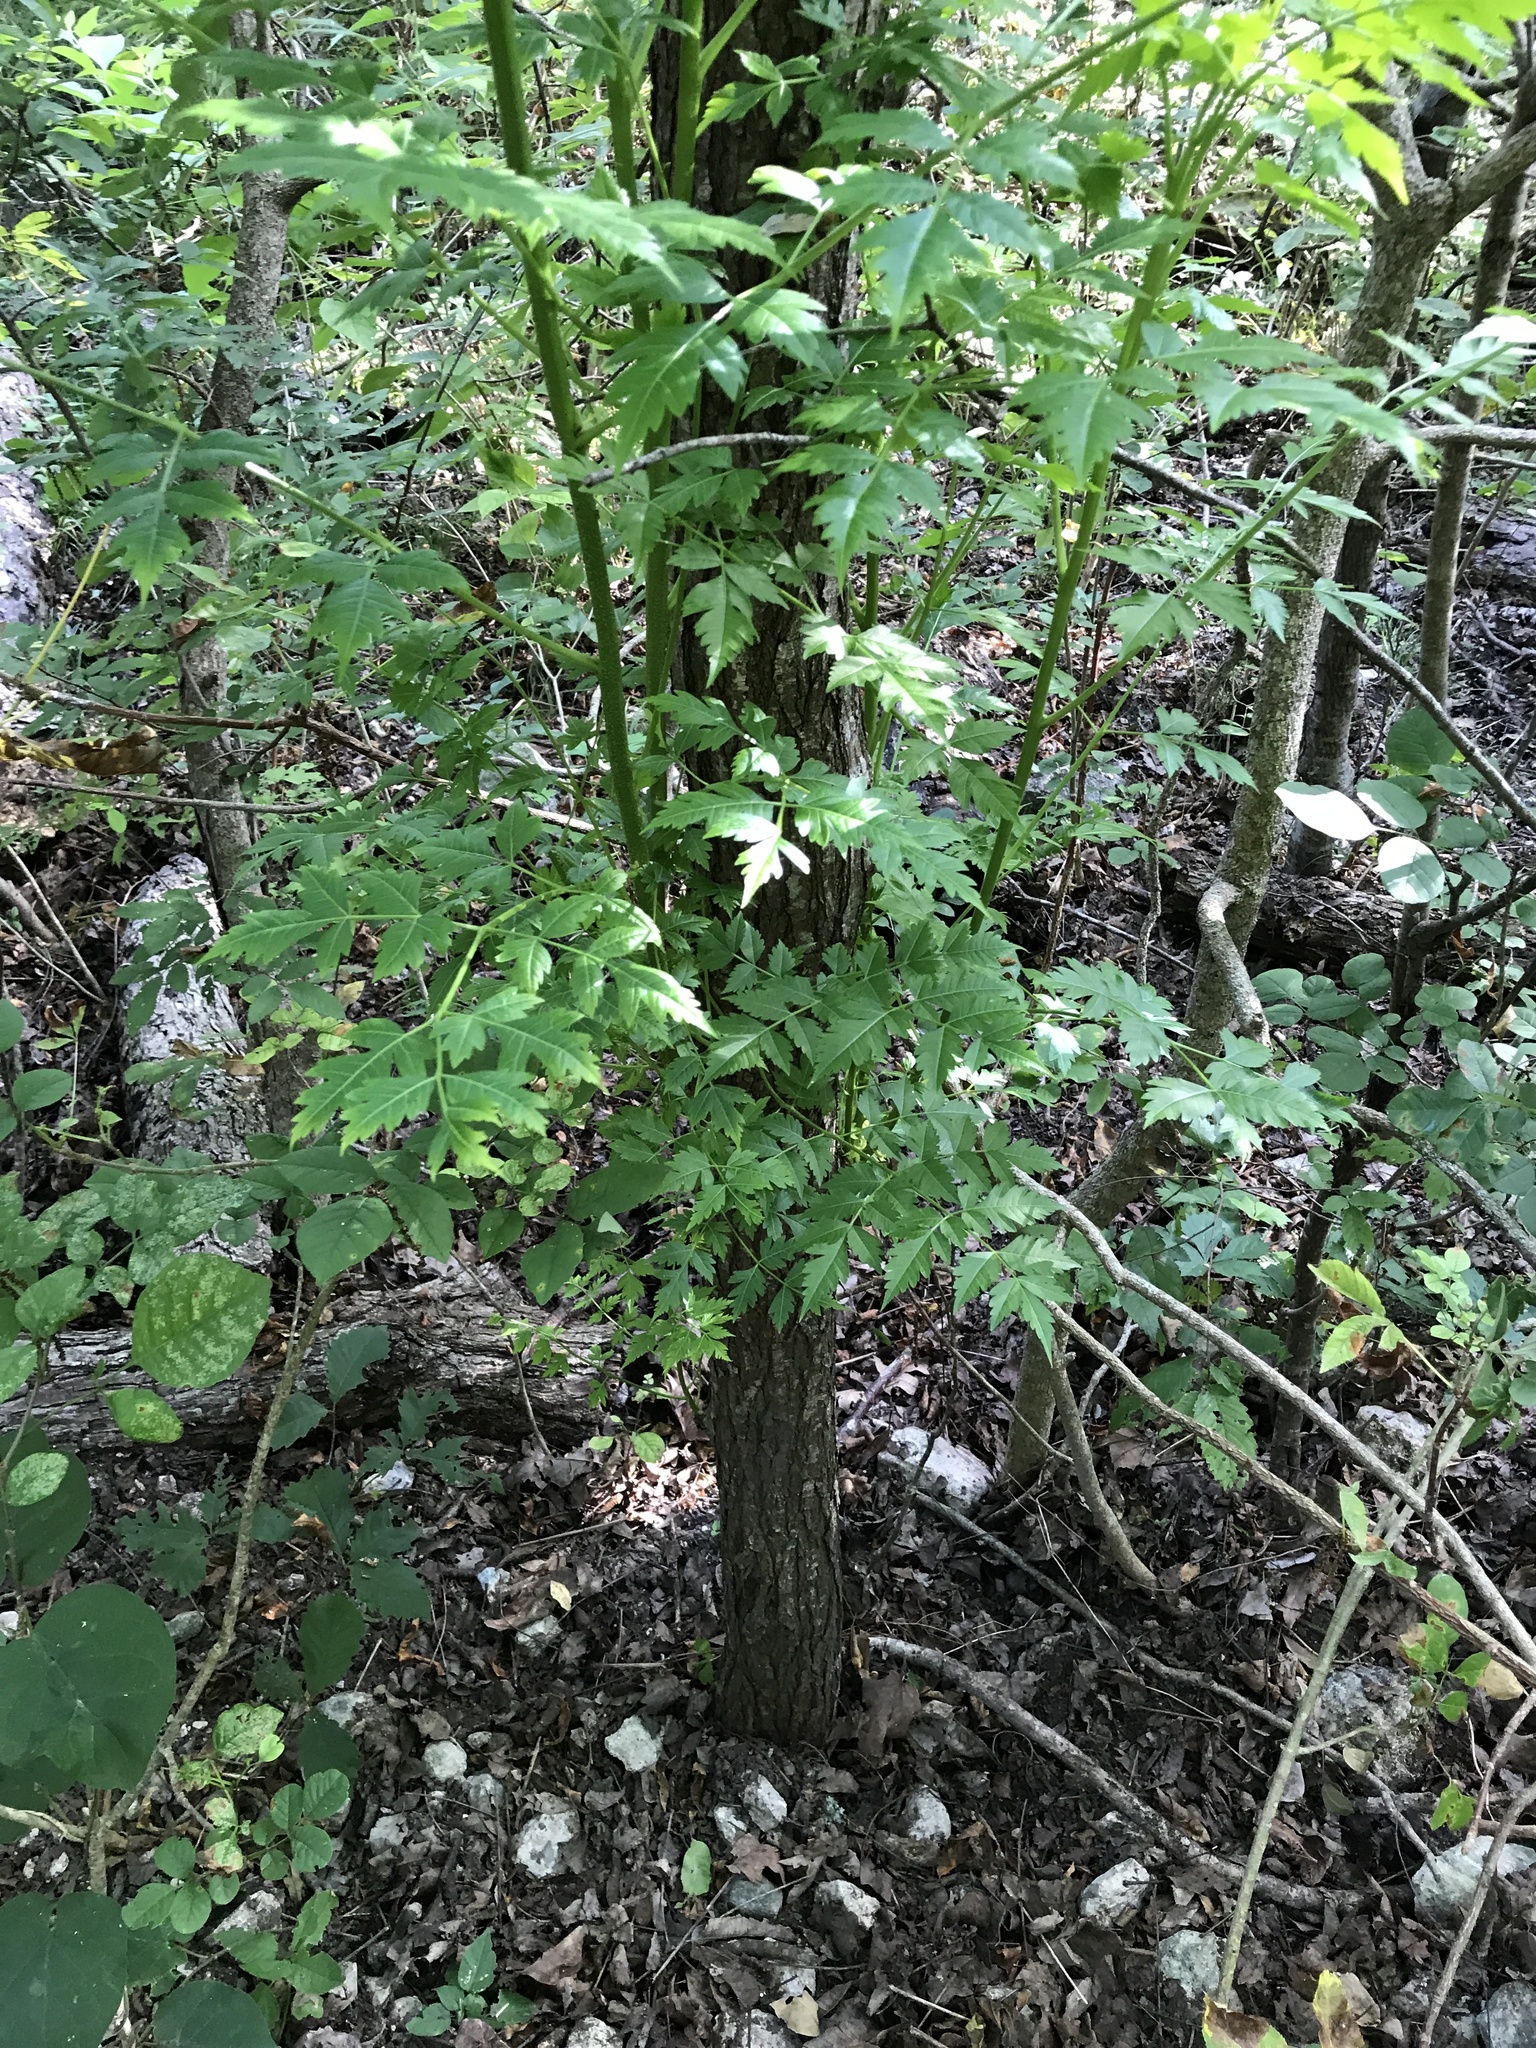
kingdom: Plantae
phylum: Tracheophyta
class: Magnoliopsida
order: Sapindales
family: Meliaceae
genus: Melia
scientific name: Melia azedarach
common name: Chinaberrytree
